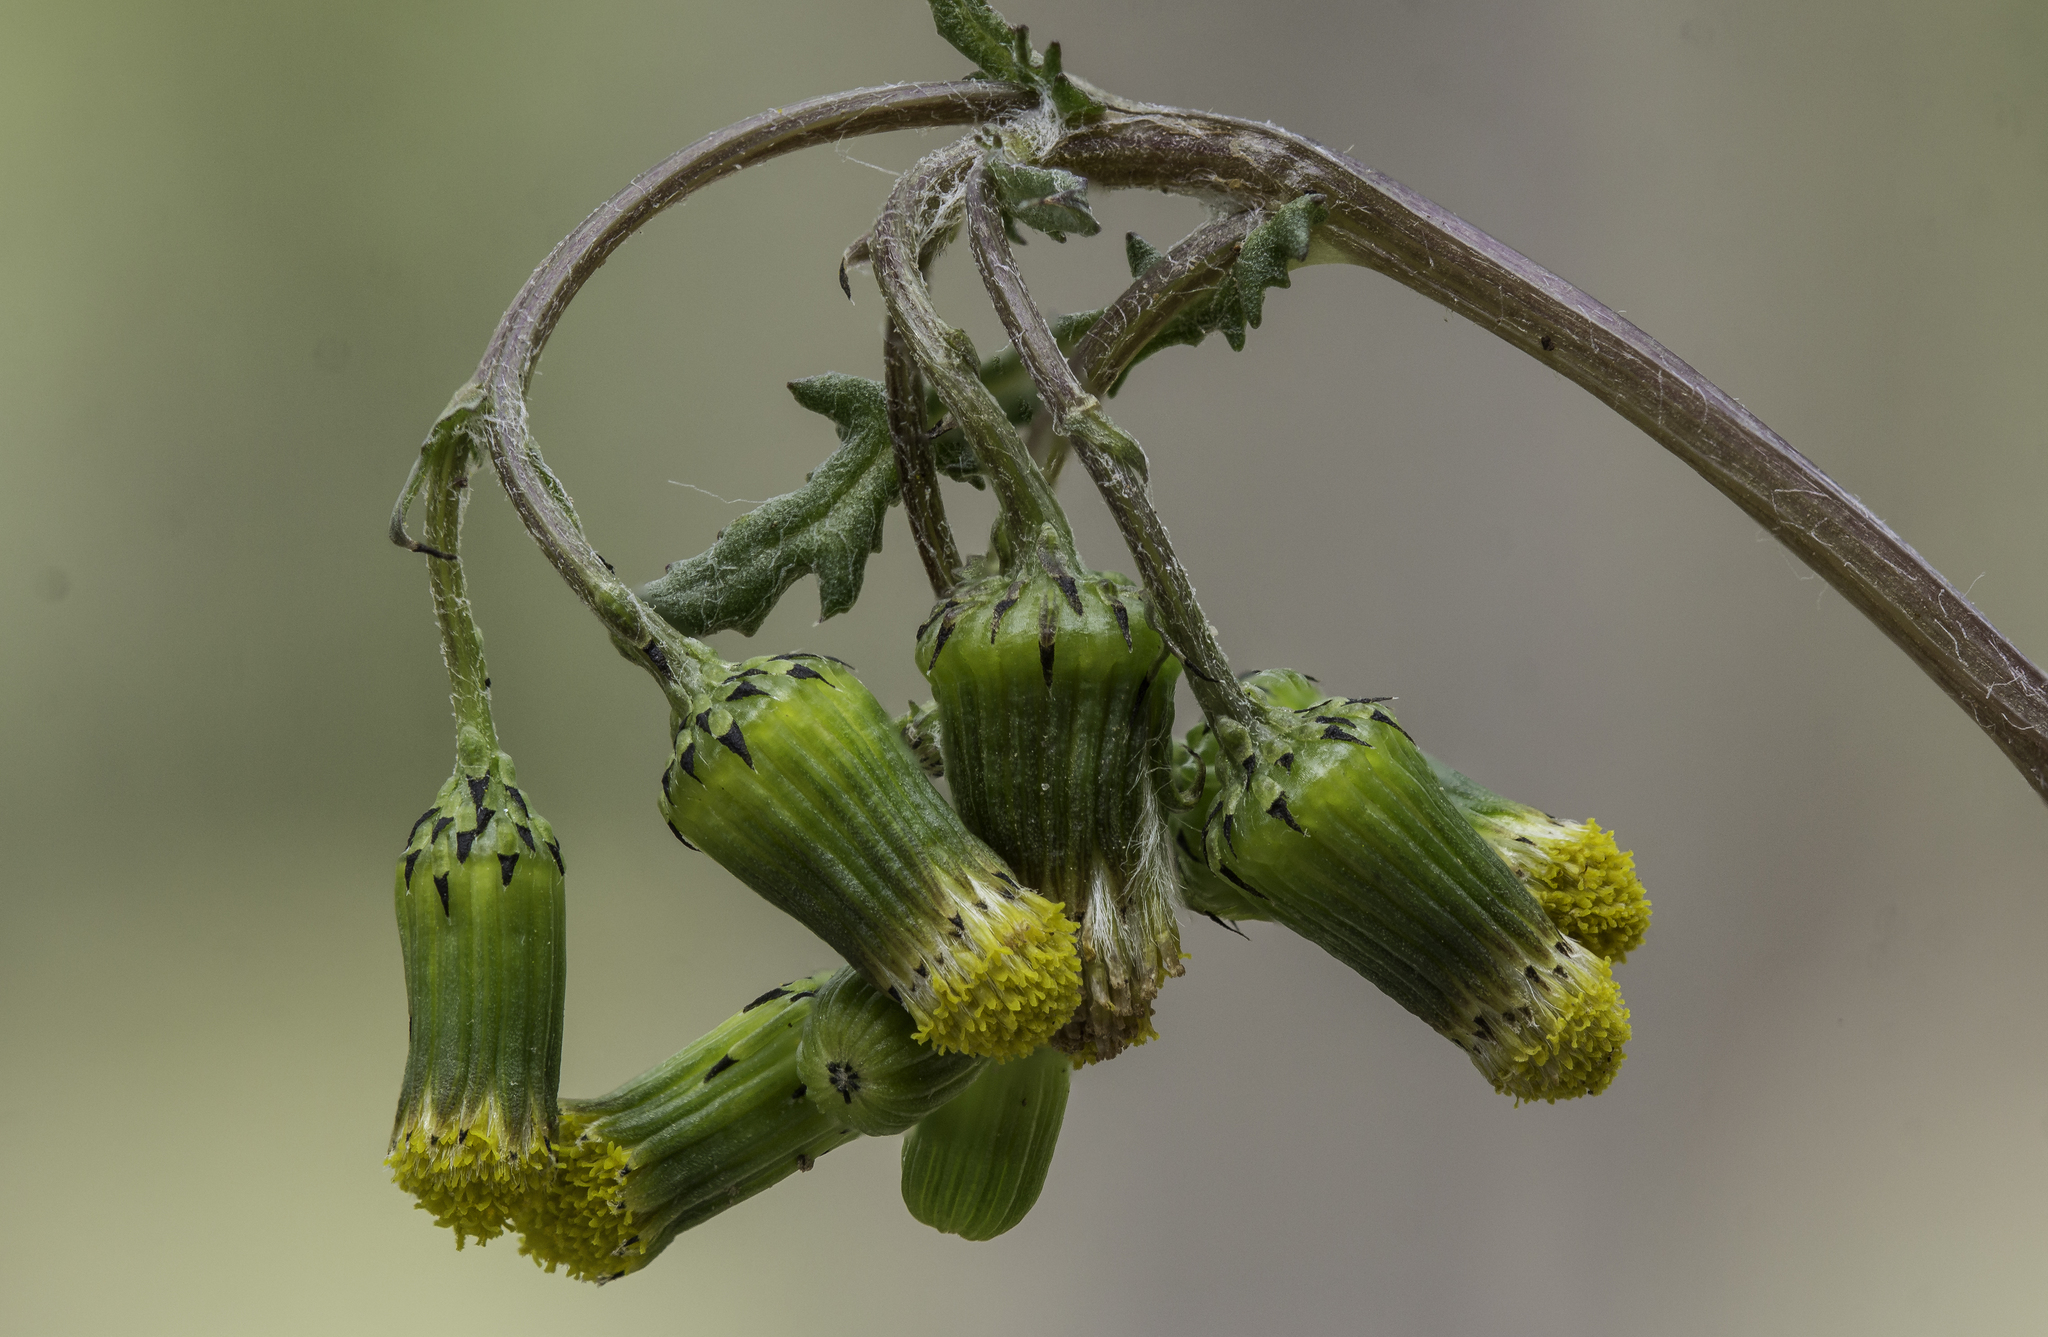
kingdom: Plantae
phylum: Tracheophyta
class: Magnoliopsida
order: Asterales
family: Asteraceae
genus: Senecio
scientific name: Senecio vulgaris
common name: Old-man-in-the-spring
